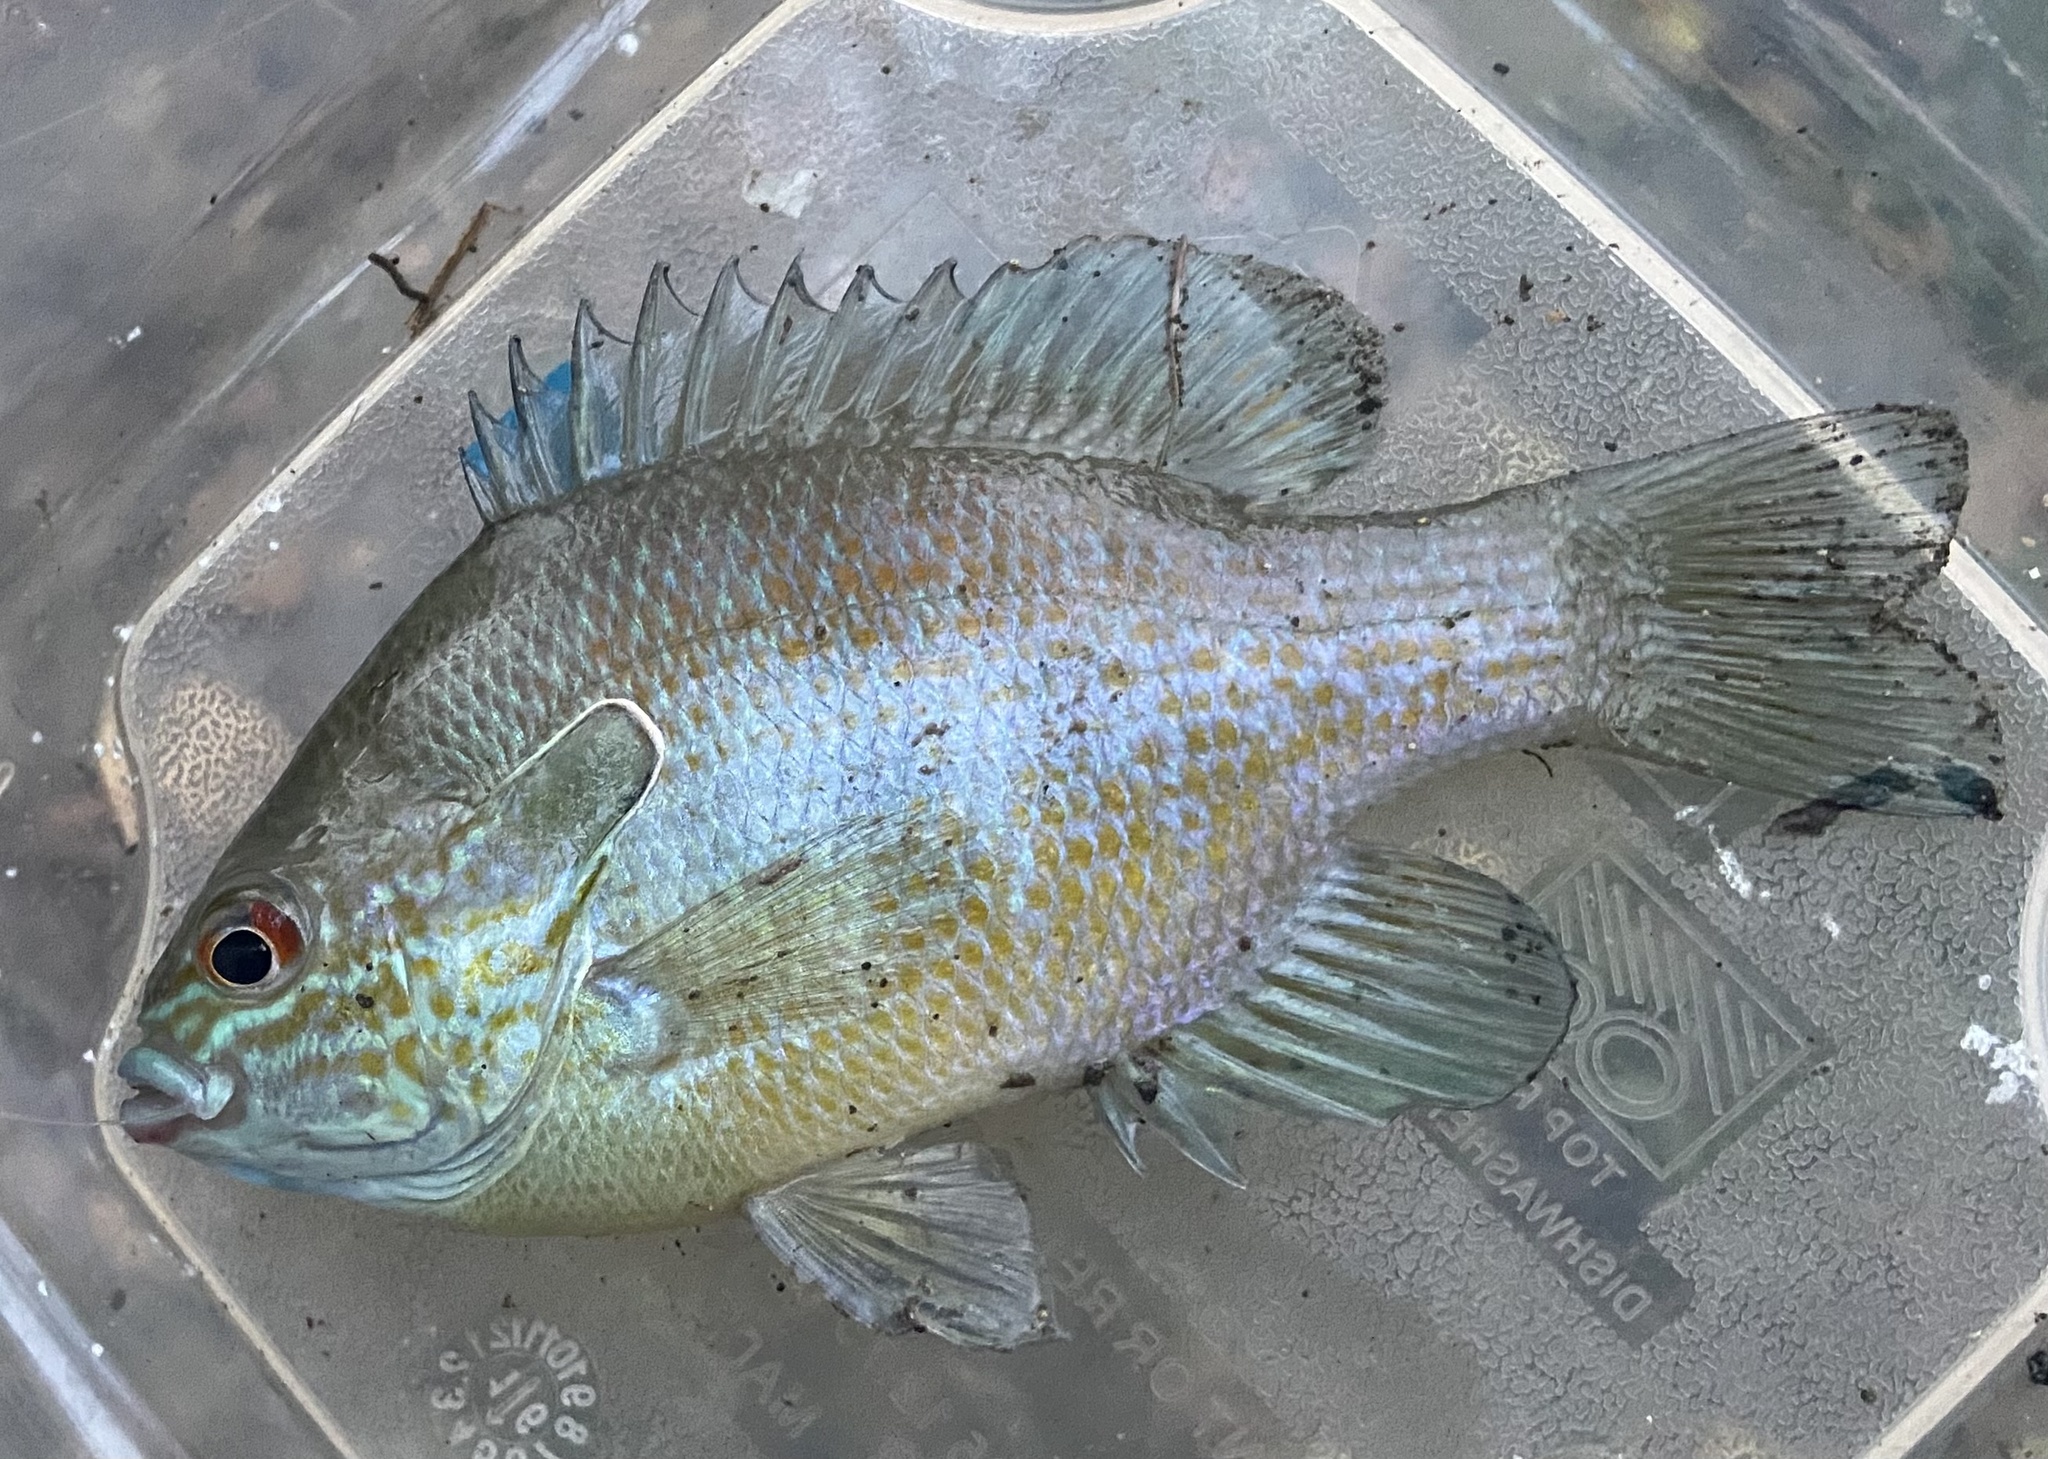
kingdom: Animalia
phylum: Chordata
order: Perciformes
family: Centrarchidae
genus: Lepomis
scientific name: Lepomis aquilensis
